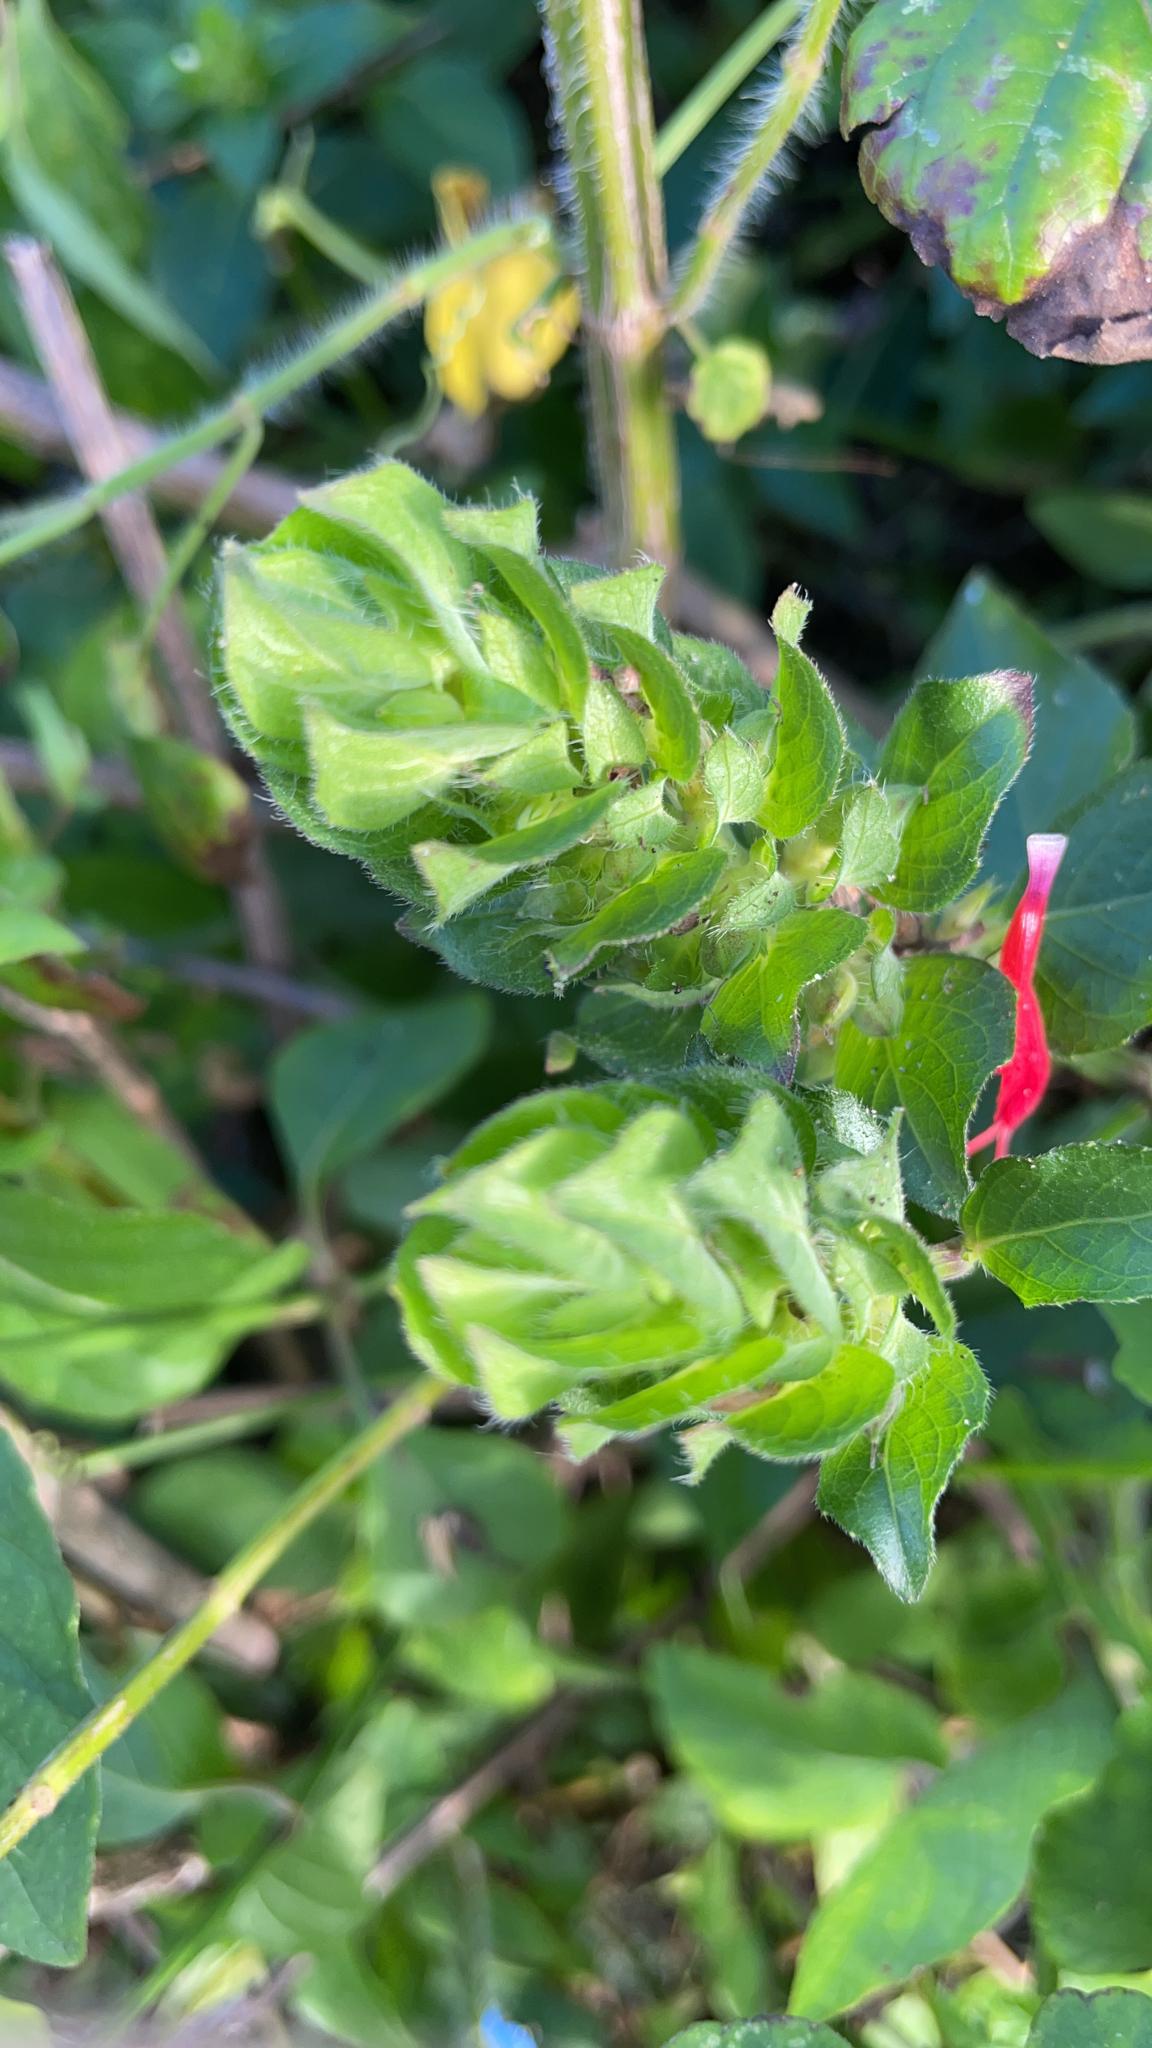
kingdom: Plantae
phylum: Tracheophyta
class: Magnoliopsida
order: Lamiales
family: Acanthaceae
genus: Ruellia
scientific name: Ruellia blechum
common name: Browne's blechum
